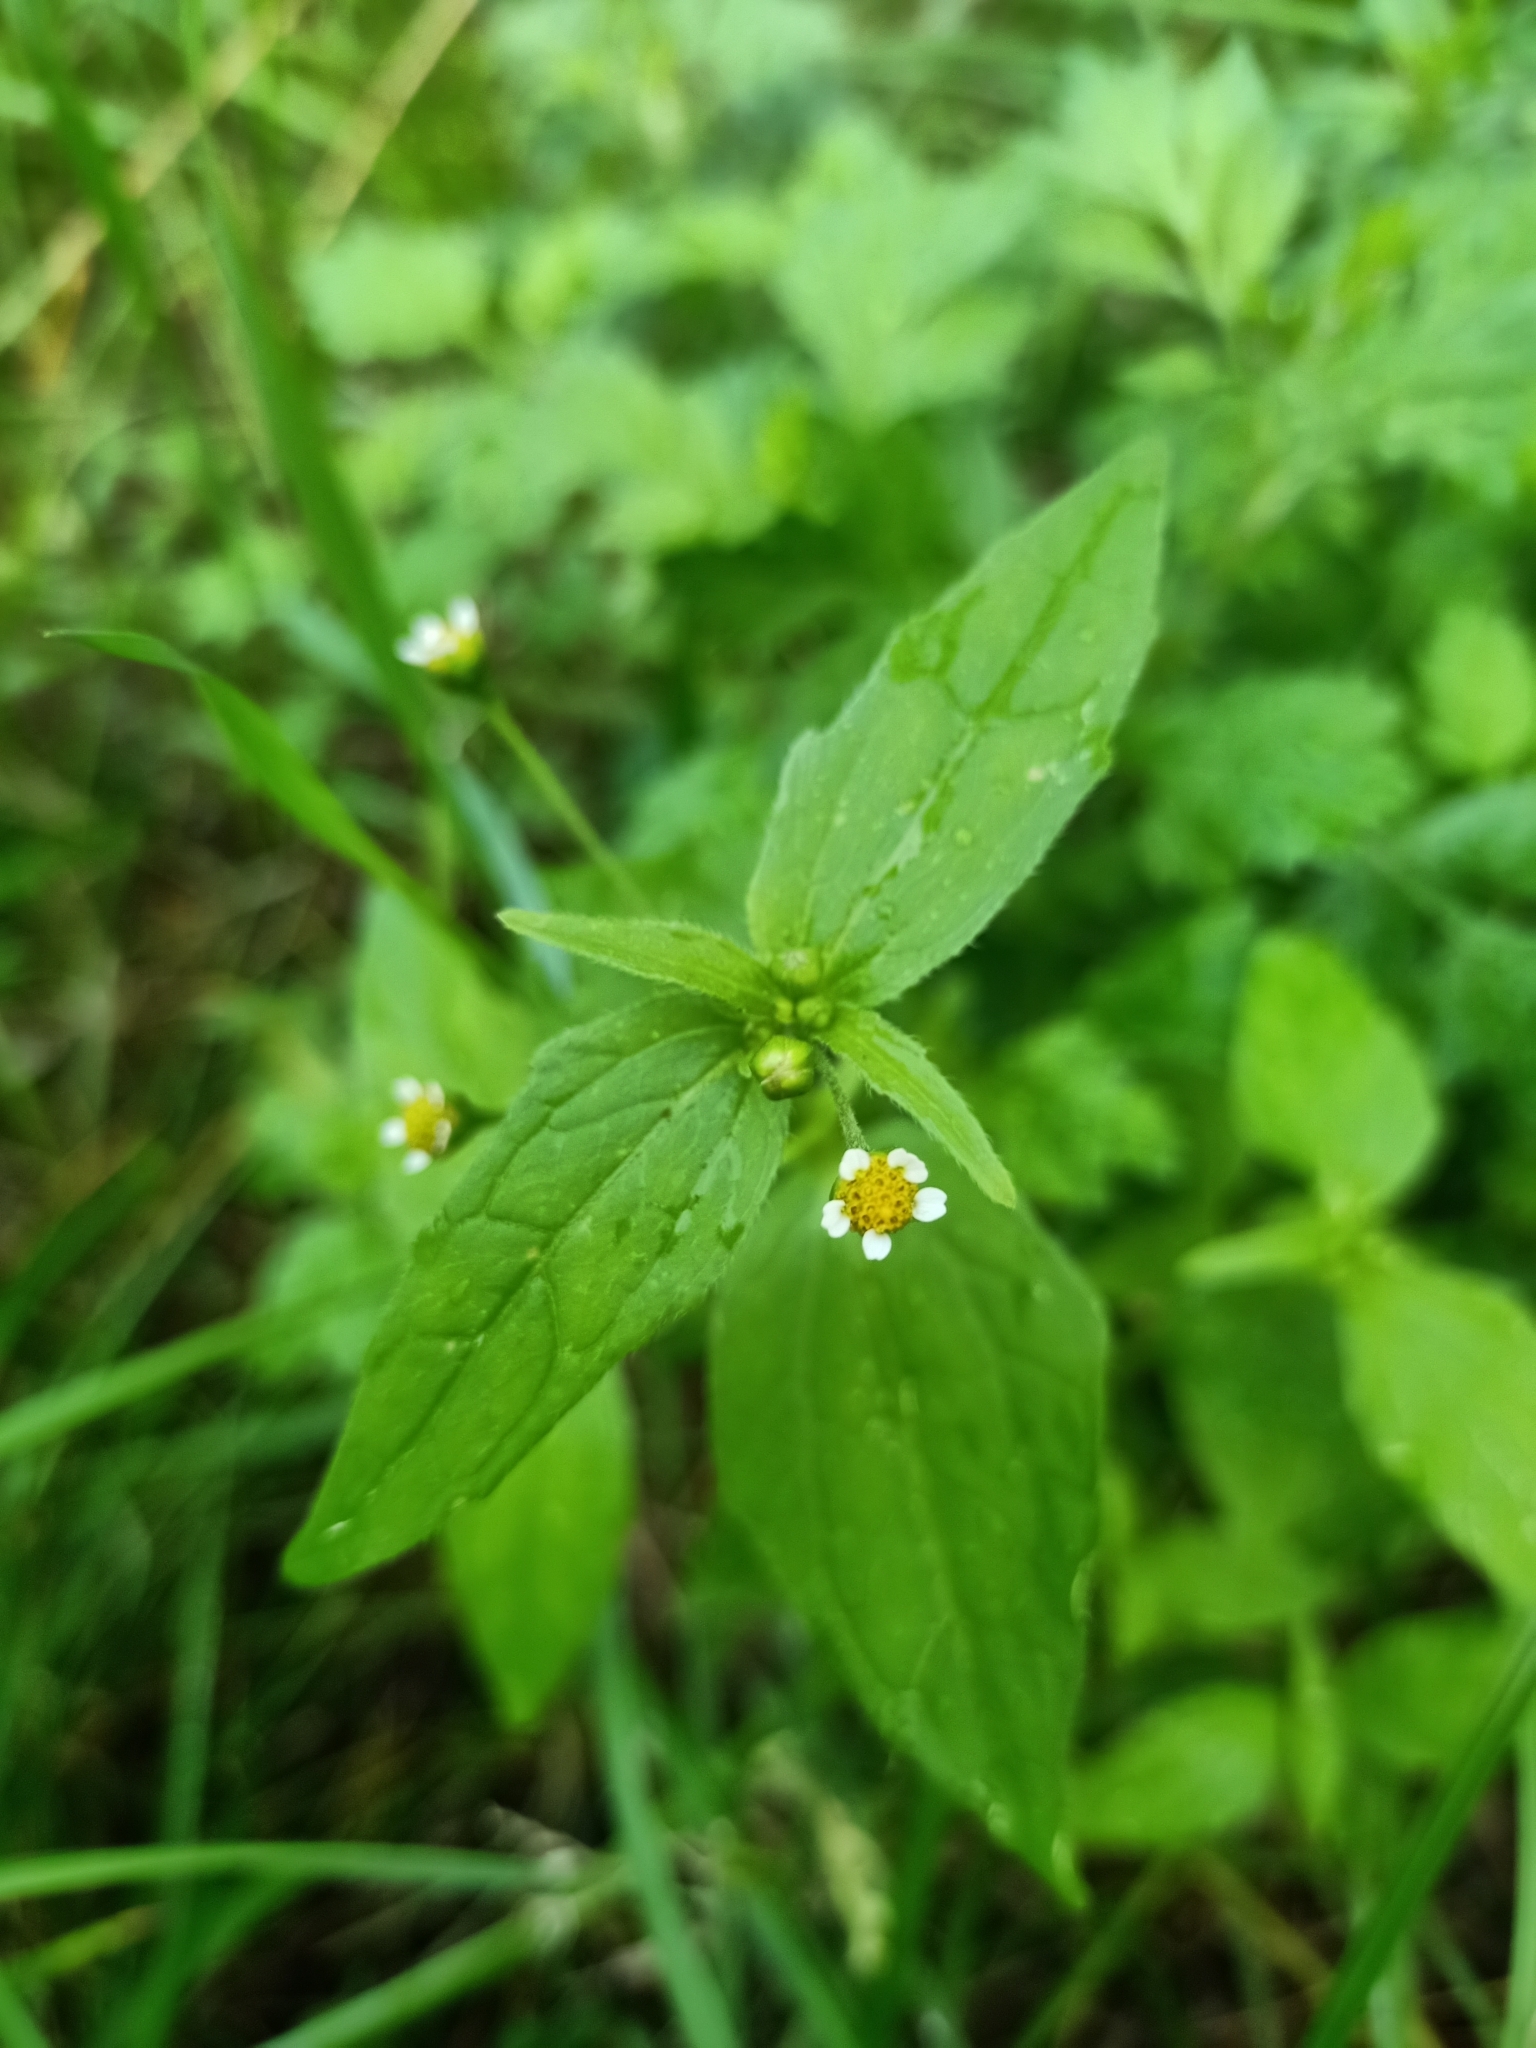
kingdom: Plantae
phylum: Tracheophyta
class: Magnoliopsida
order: Asterales
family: Asteraceae
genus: Galinsoga
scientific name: Galinsoga parviflora
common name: Gallant soldier
